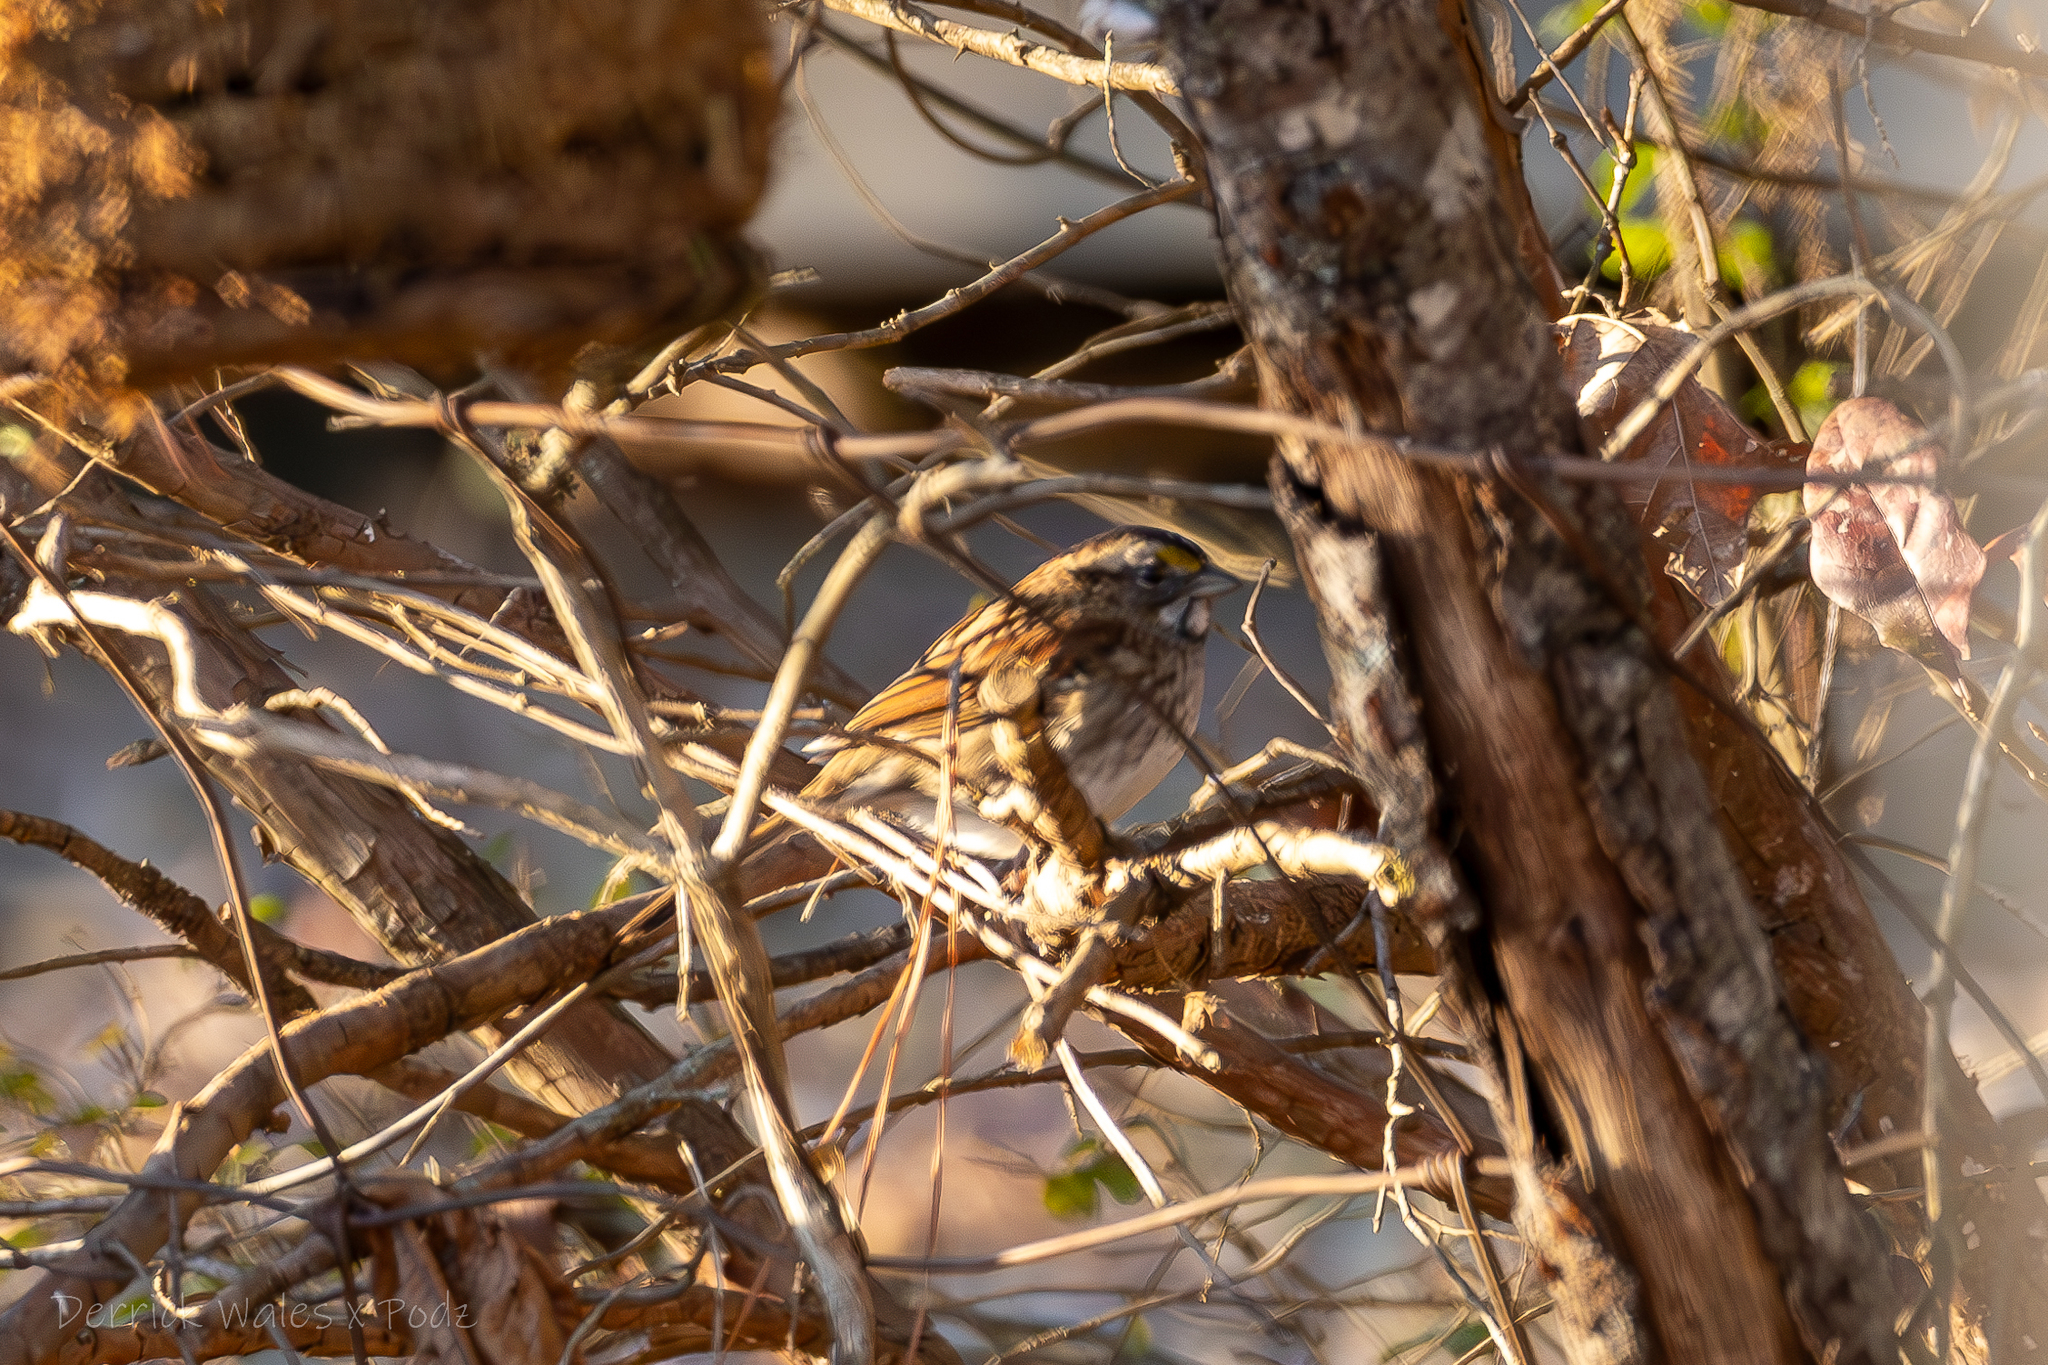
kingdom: Animalia
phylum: Chordata
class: Aves
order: Passeriformes
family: Passerellidae
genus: Zonotrichia
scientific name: Zonotrichia albicollis
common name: White-throated sparrow
